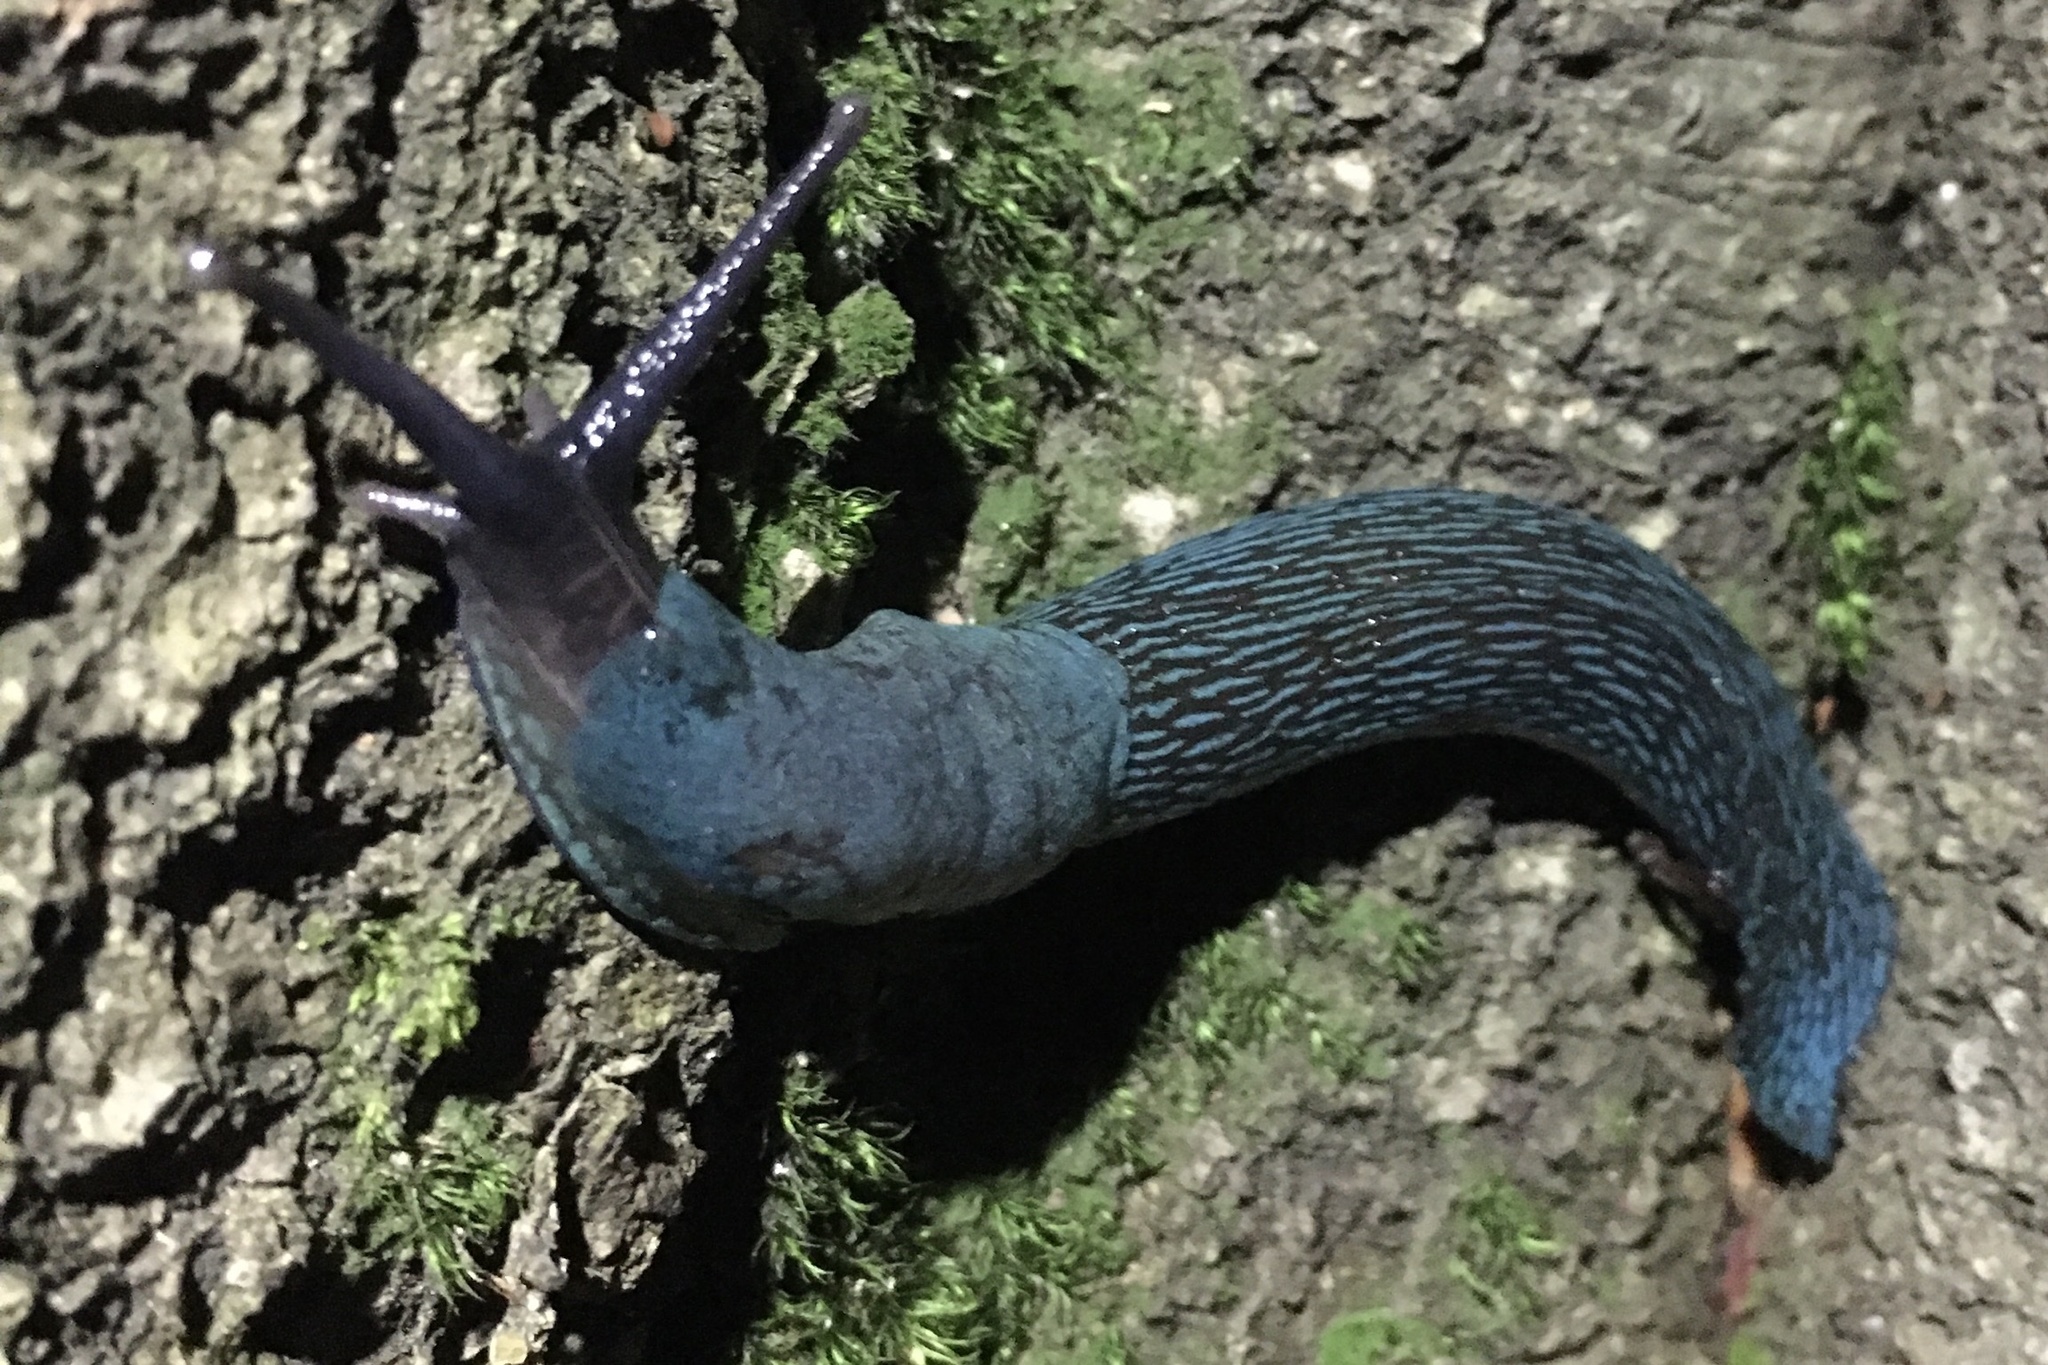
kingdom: Animalia
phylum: Mollusca
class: Gastropoda
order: Stylommatophora
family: Limacidae
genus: Bielzia
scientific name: Bielzia coerulans
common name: Carpathian blue slug
